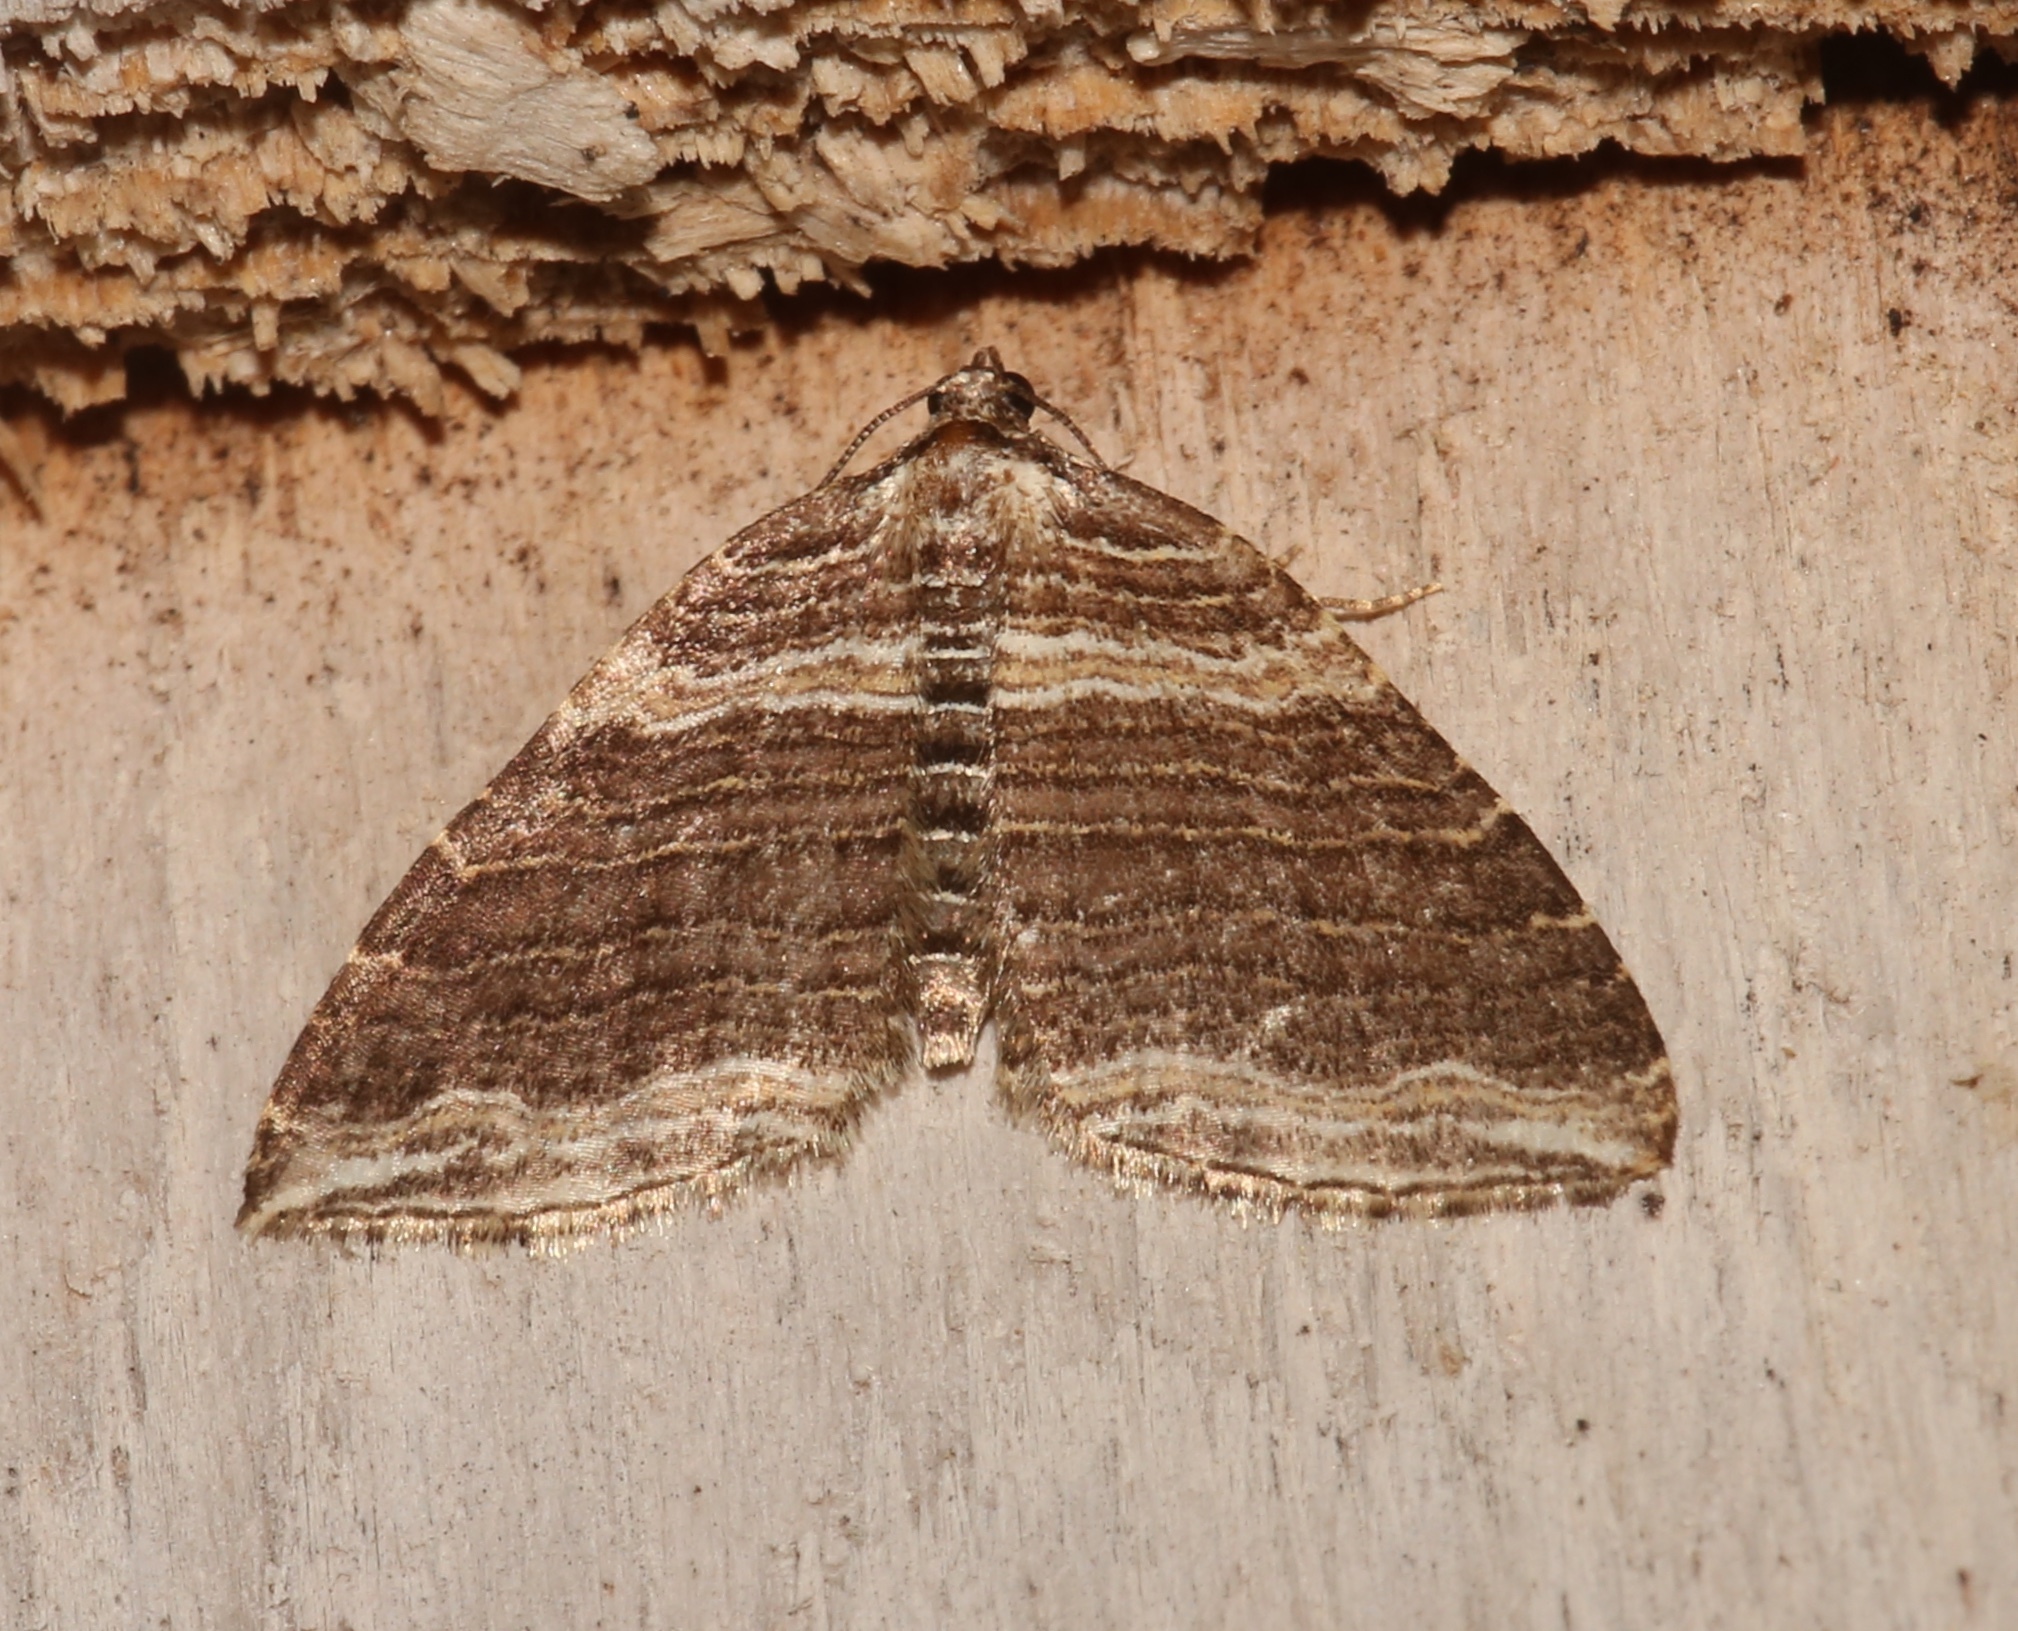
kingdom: Animalia
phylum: Arthropoda
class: Insecta
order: Lepidoptera
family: Geometridae
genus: Anticlea
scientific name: Anticlea multiferata
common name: Many-lined carpet
